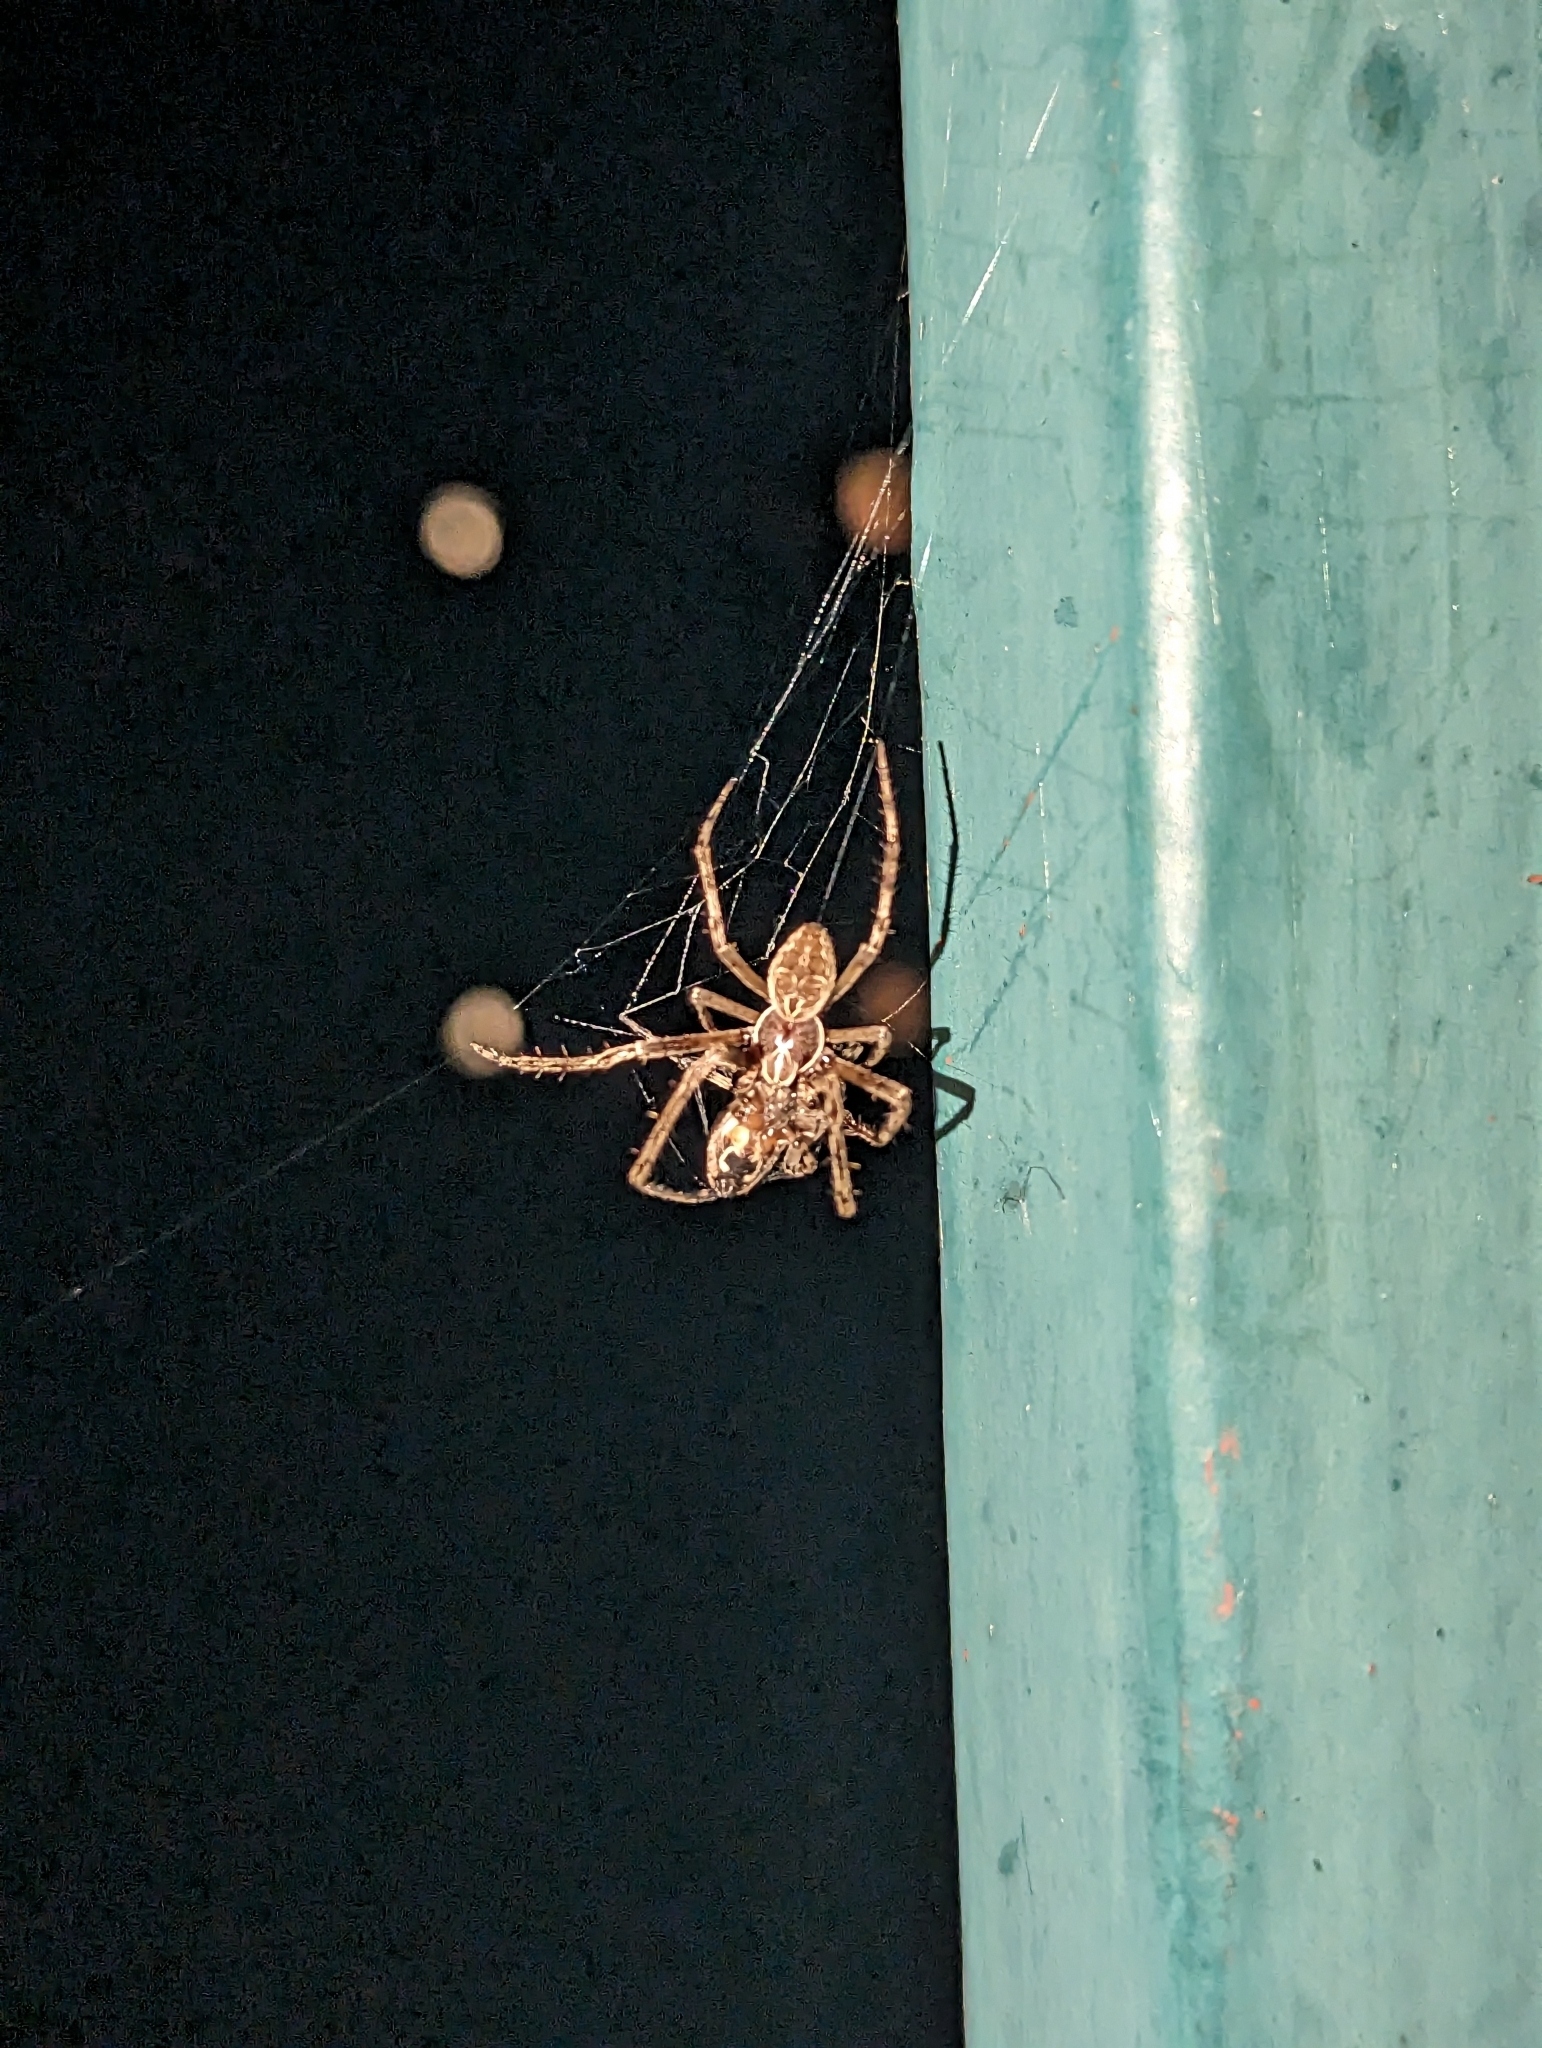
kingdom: Animalia
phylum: Arthropoda
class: Arachnida
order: Araneae
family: Araneidae
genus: Larinioides
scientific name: Larinioides sclopetarius
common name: Bridge orbweaver
